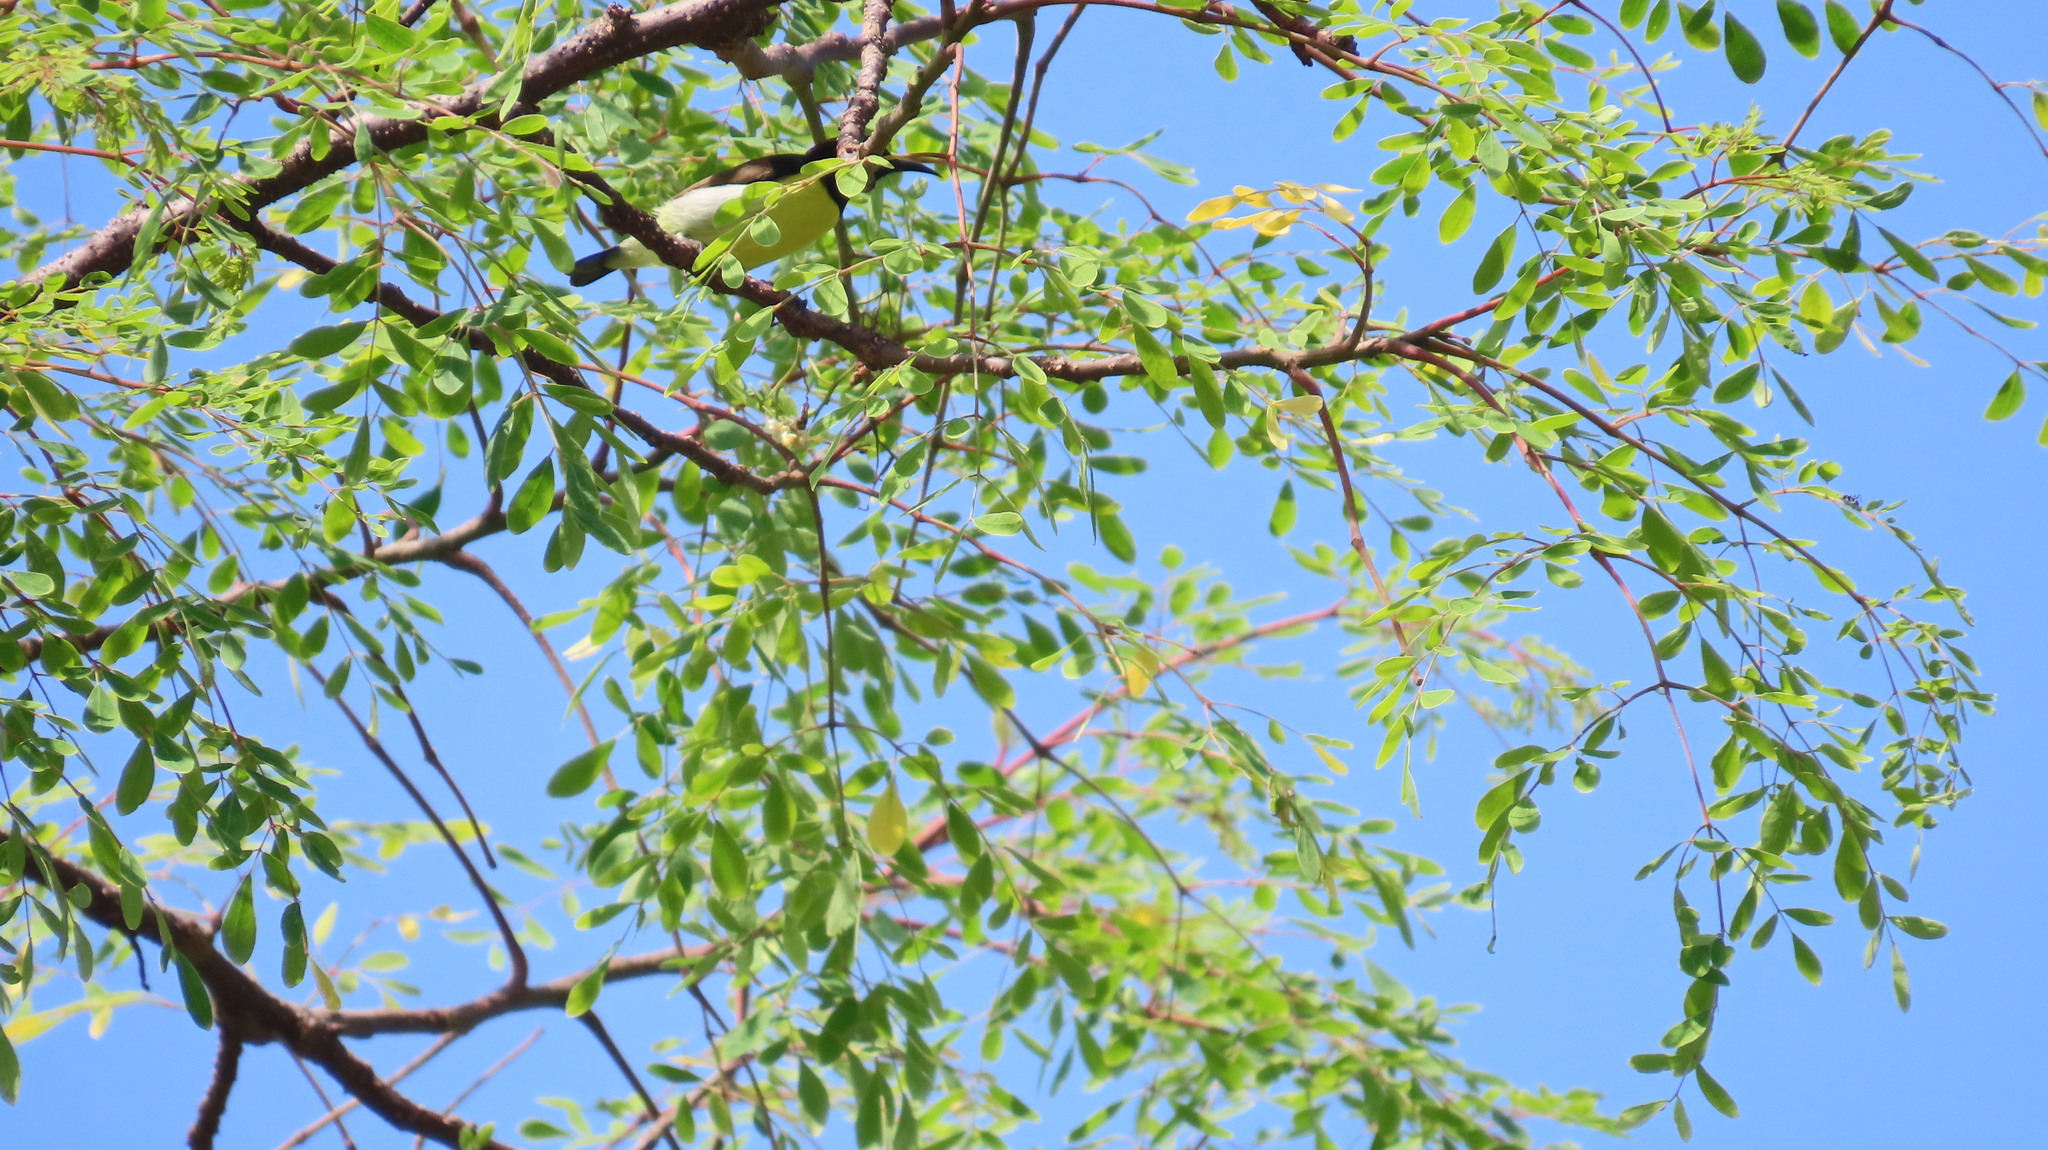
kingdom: Animalia
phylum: Chordata
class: Aves
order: Passeriformes
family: Nectariniidae
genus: Leptocoma
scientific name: Leptocoma zeylonica
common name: Purple-rumped sunbird
